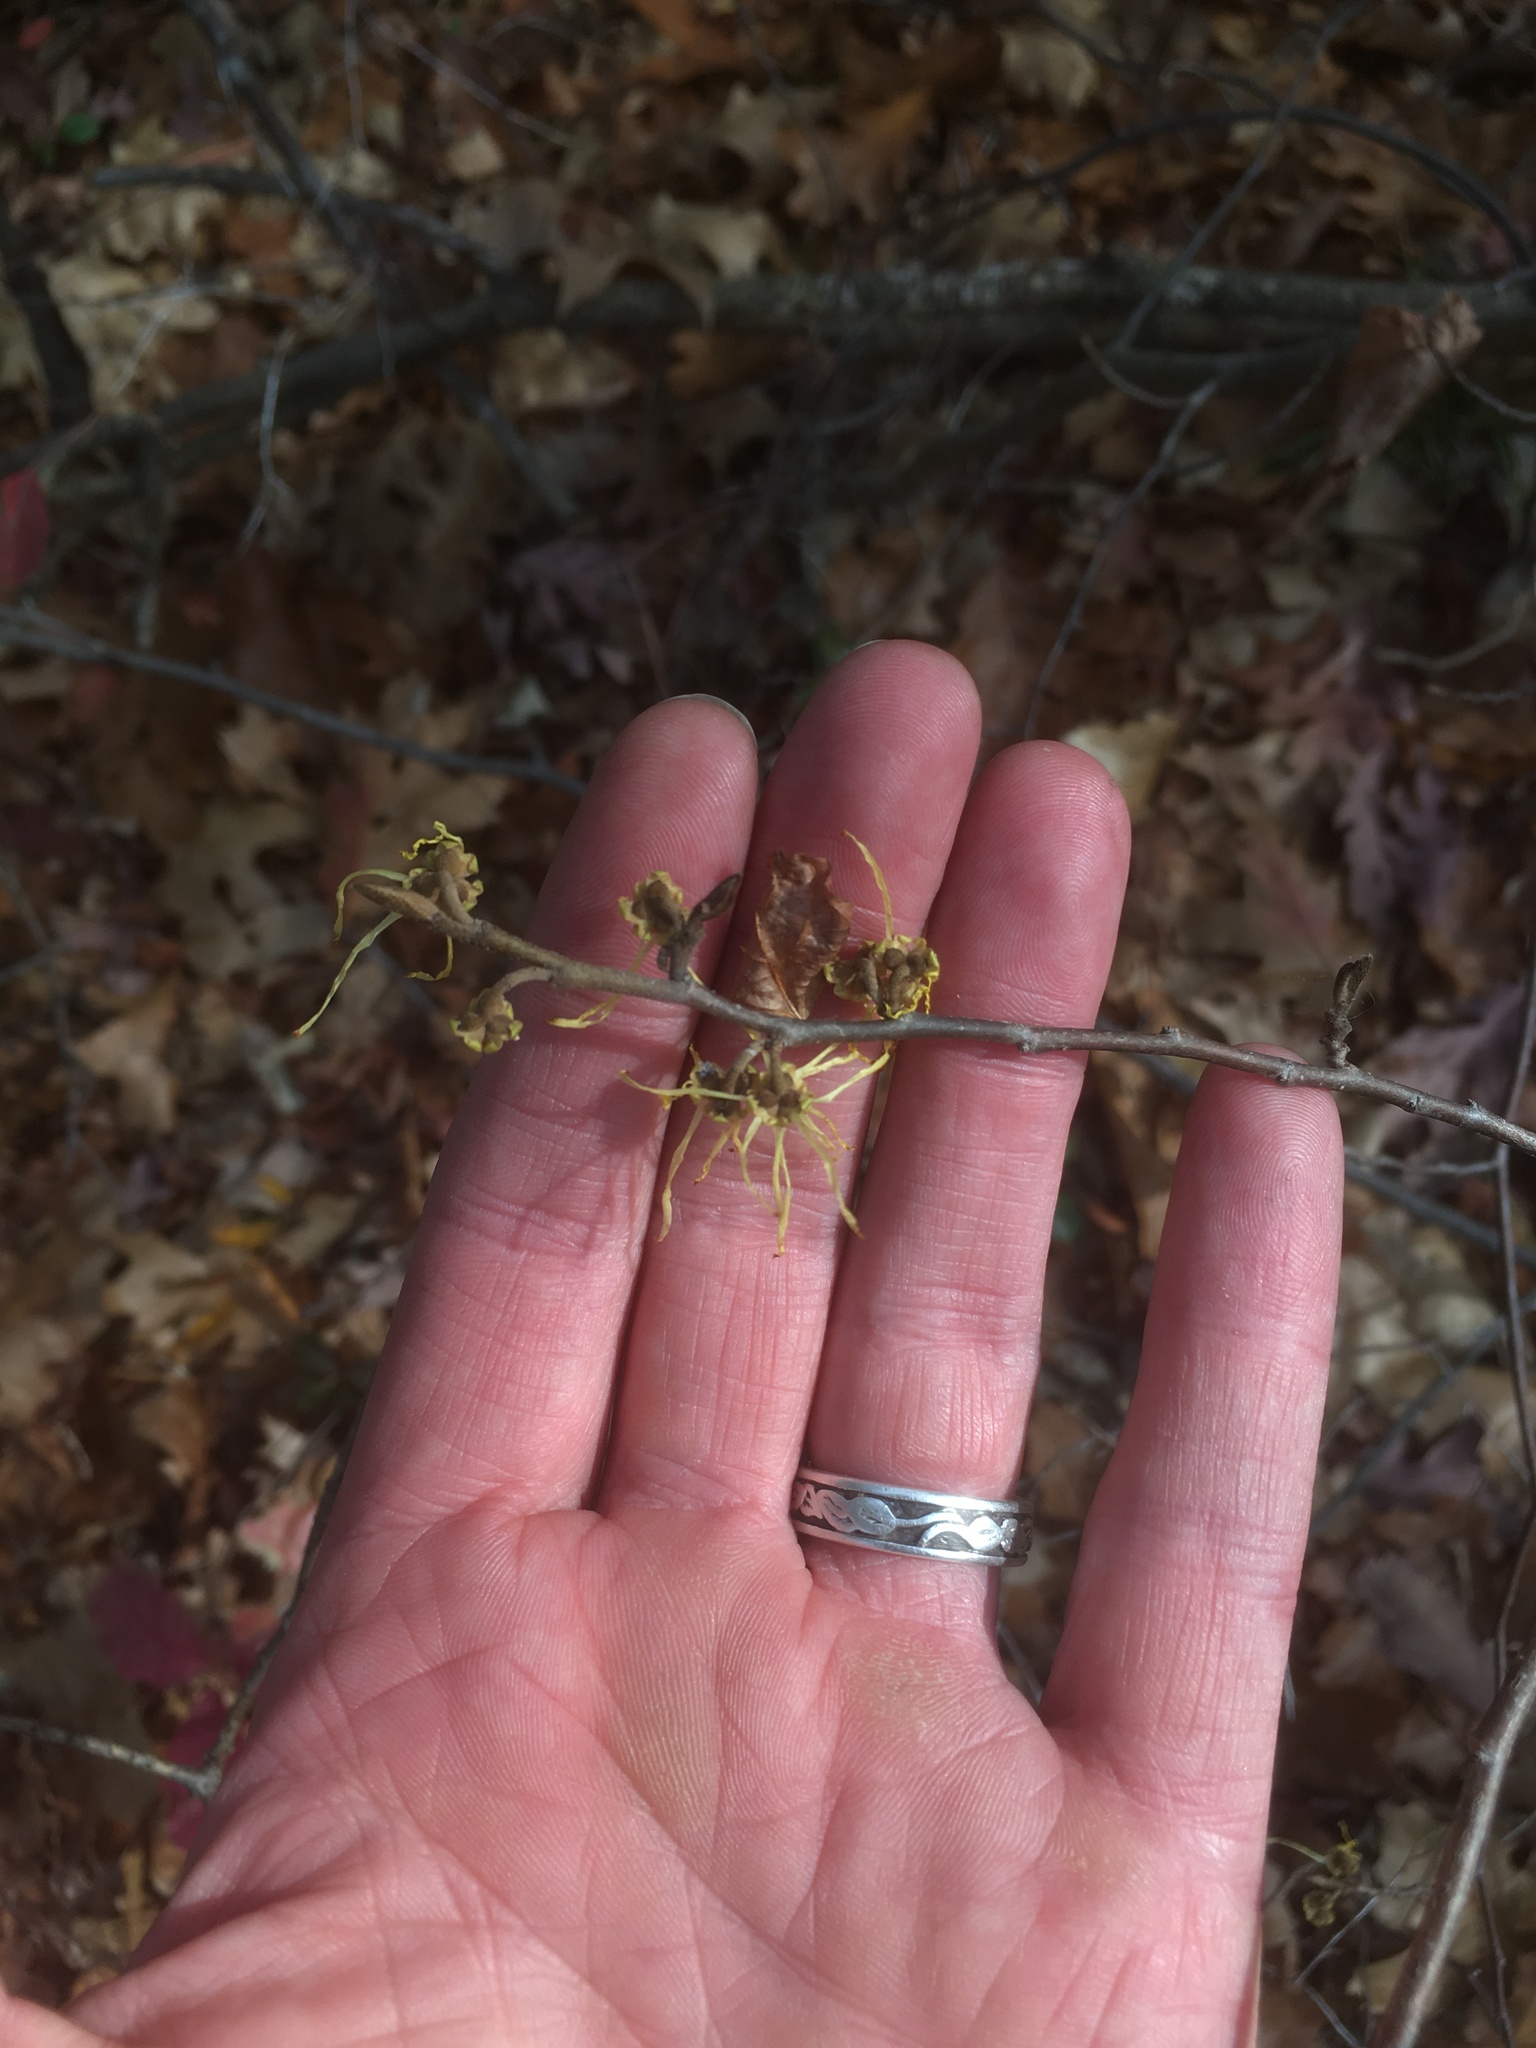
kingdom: Plantae
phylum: Tracheophyta
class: Magnoliopsida
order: Saxifragales
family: Hamamelidaceae
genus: Hamamelis
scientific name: Hamamelis virginiana
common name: Witch-hazel
